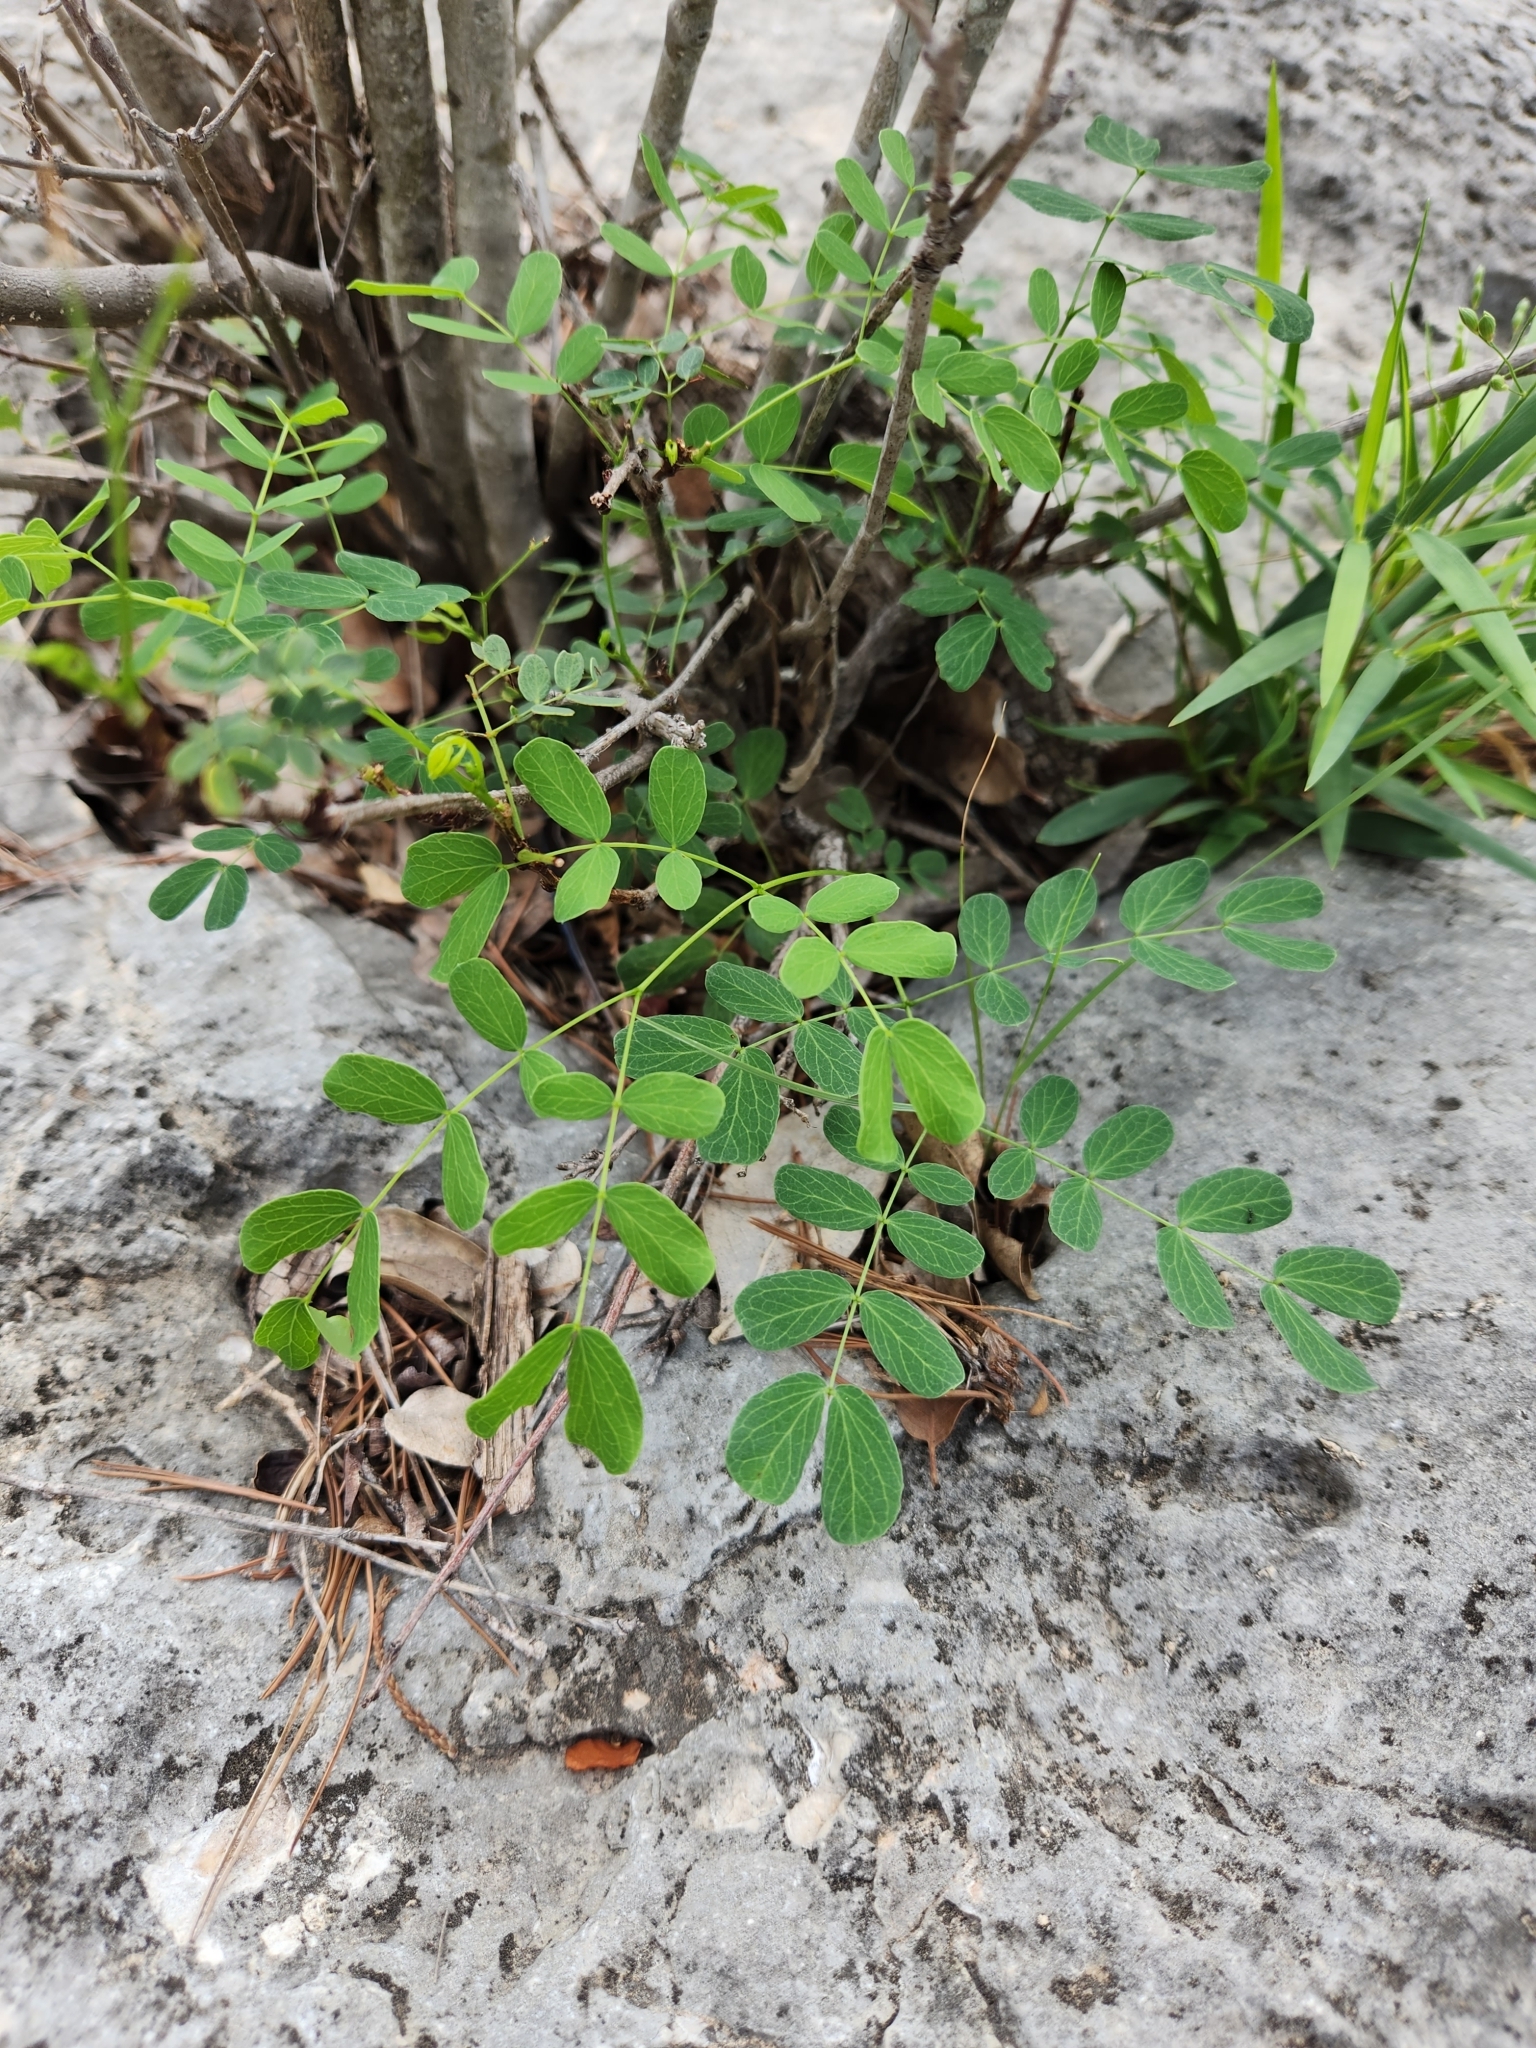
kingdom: Plantae
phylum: Tracheophyta
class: Magnoliopsida
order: Fabales
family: Fabaceae
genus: Leucaena
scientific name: Leucaena retusa
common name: Littleleaf leadtree
